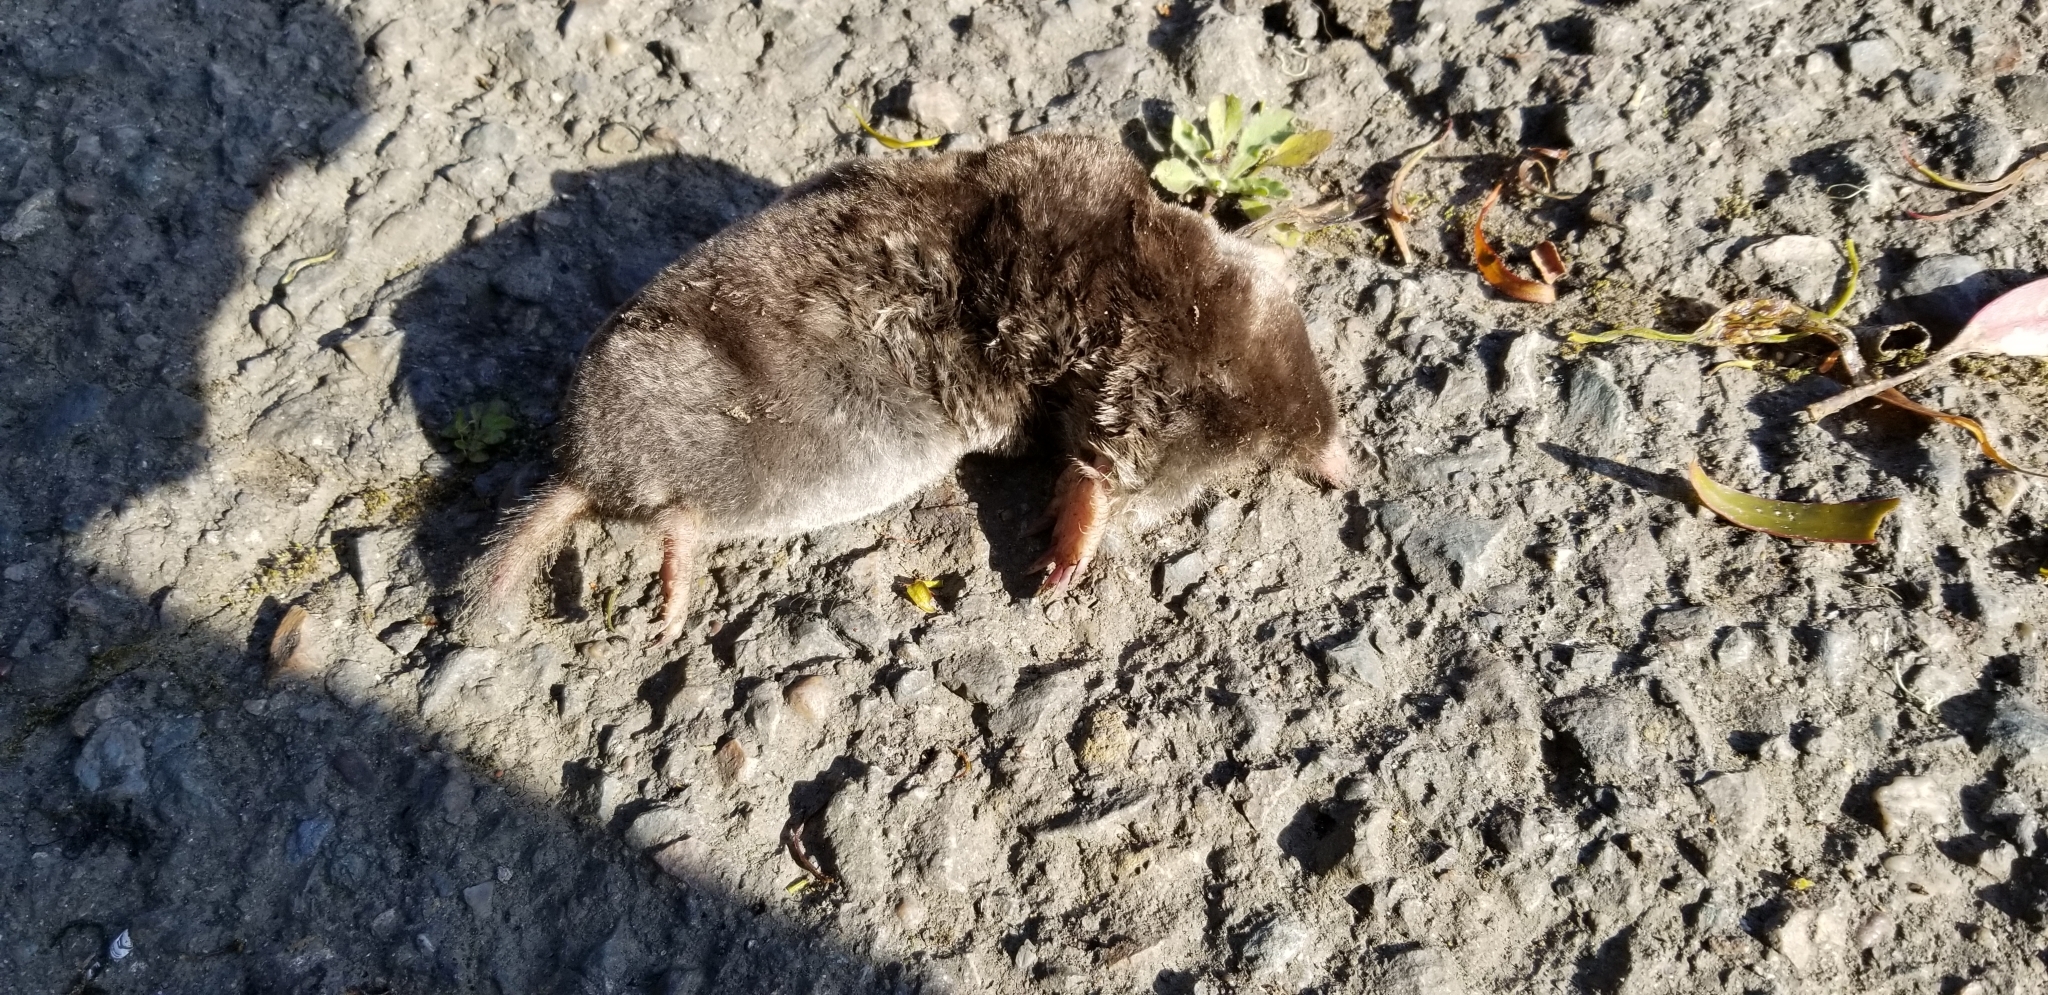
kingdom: Animalia
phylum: Chordata
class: Mammalia
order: Soricomorpha
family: Talpidae
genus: Scapanus
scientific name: Scapanus latimanus
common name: Broad-footed mole
